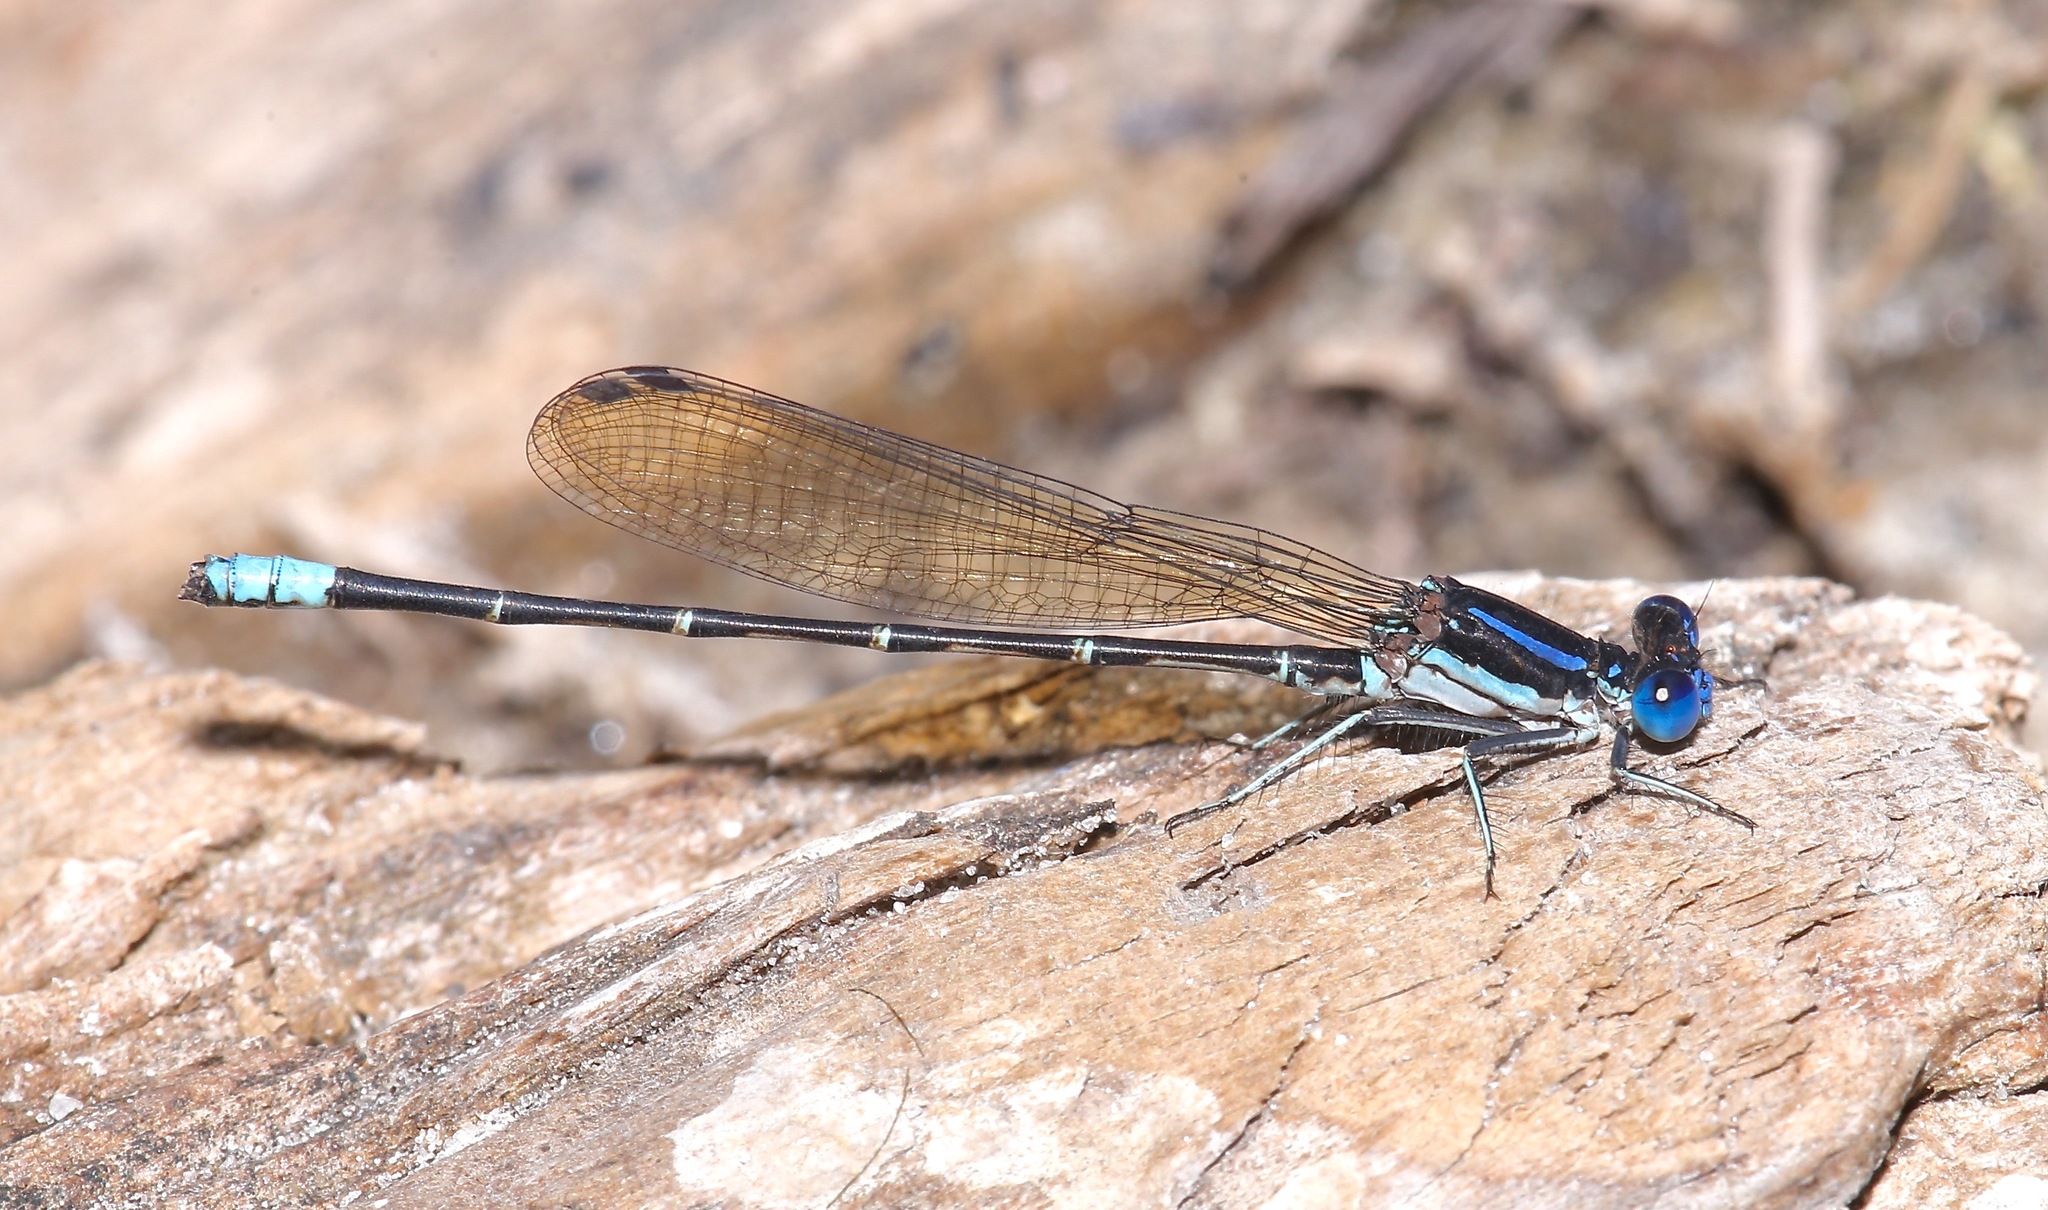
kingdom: Animalia
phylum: Arthropoda
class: Insecta
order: Odonata
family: Coenagrionidae
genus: Argia
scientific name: Argia sedula
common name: Blue-ringed dancer
